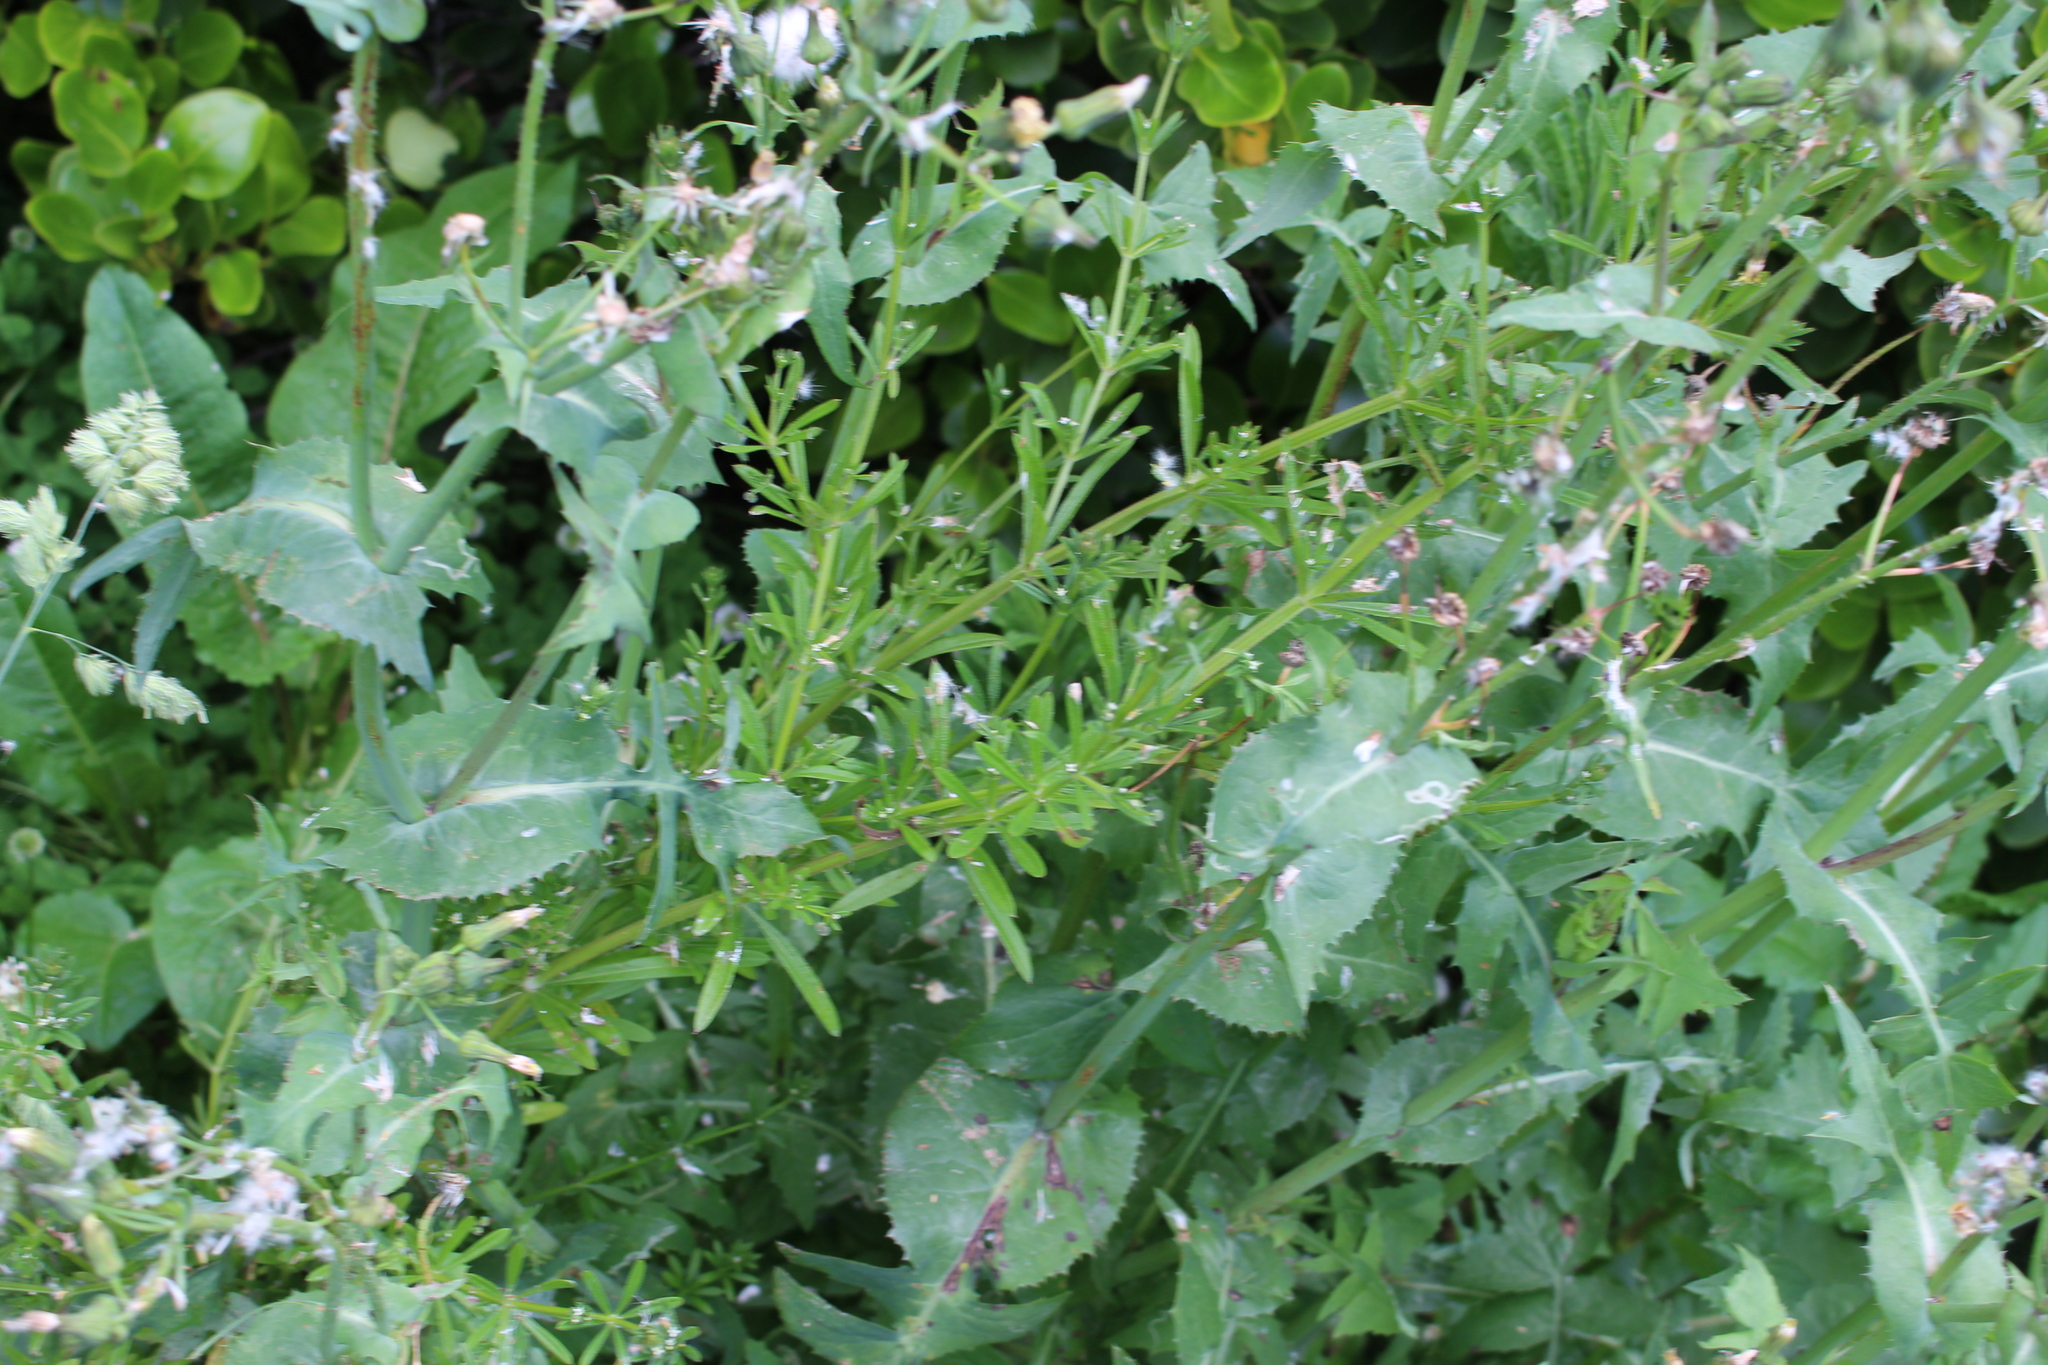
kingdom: Plantae
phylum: Tracheophyta
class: Magnoliopsida
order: Gentianales
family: Rubiaceae
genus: Galium
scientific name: Galium aparine
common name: Cleavers
